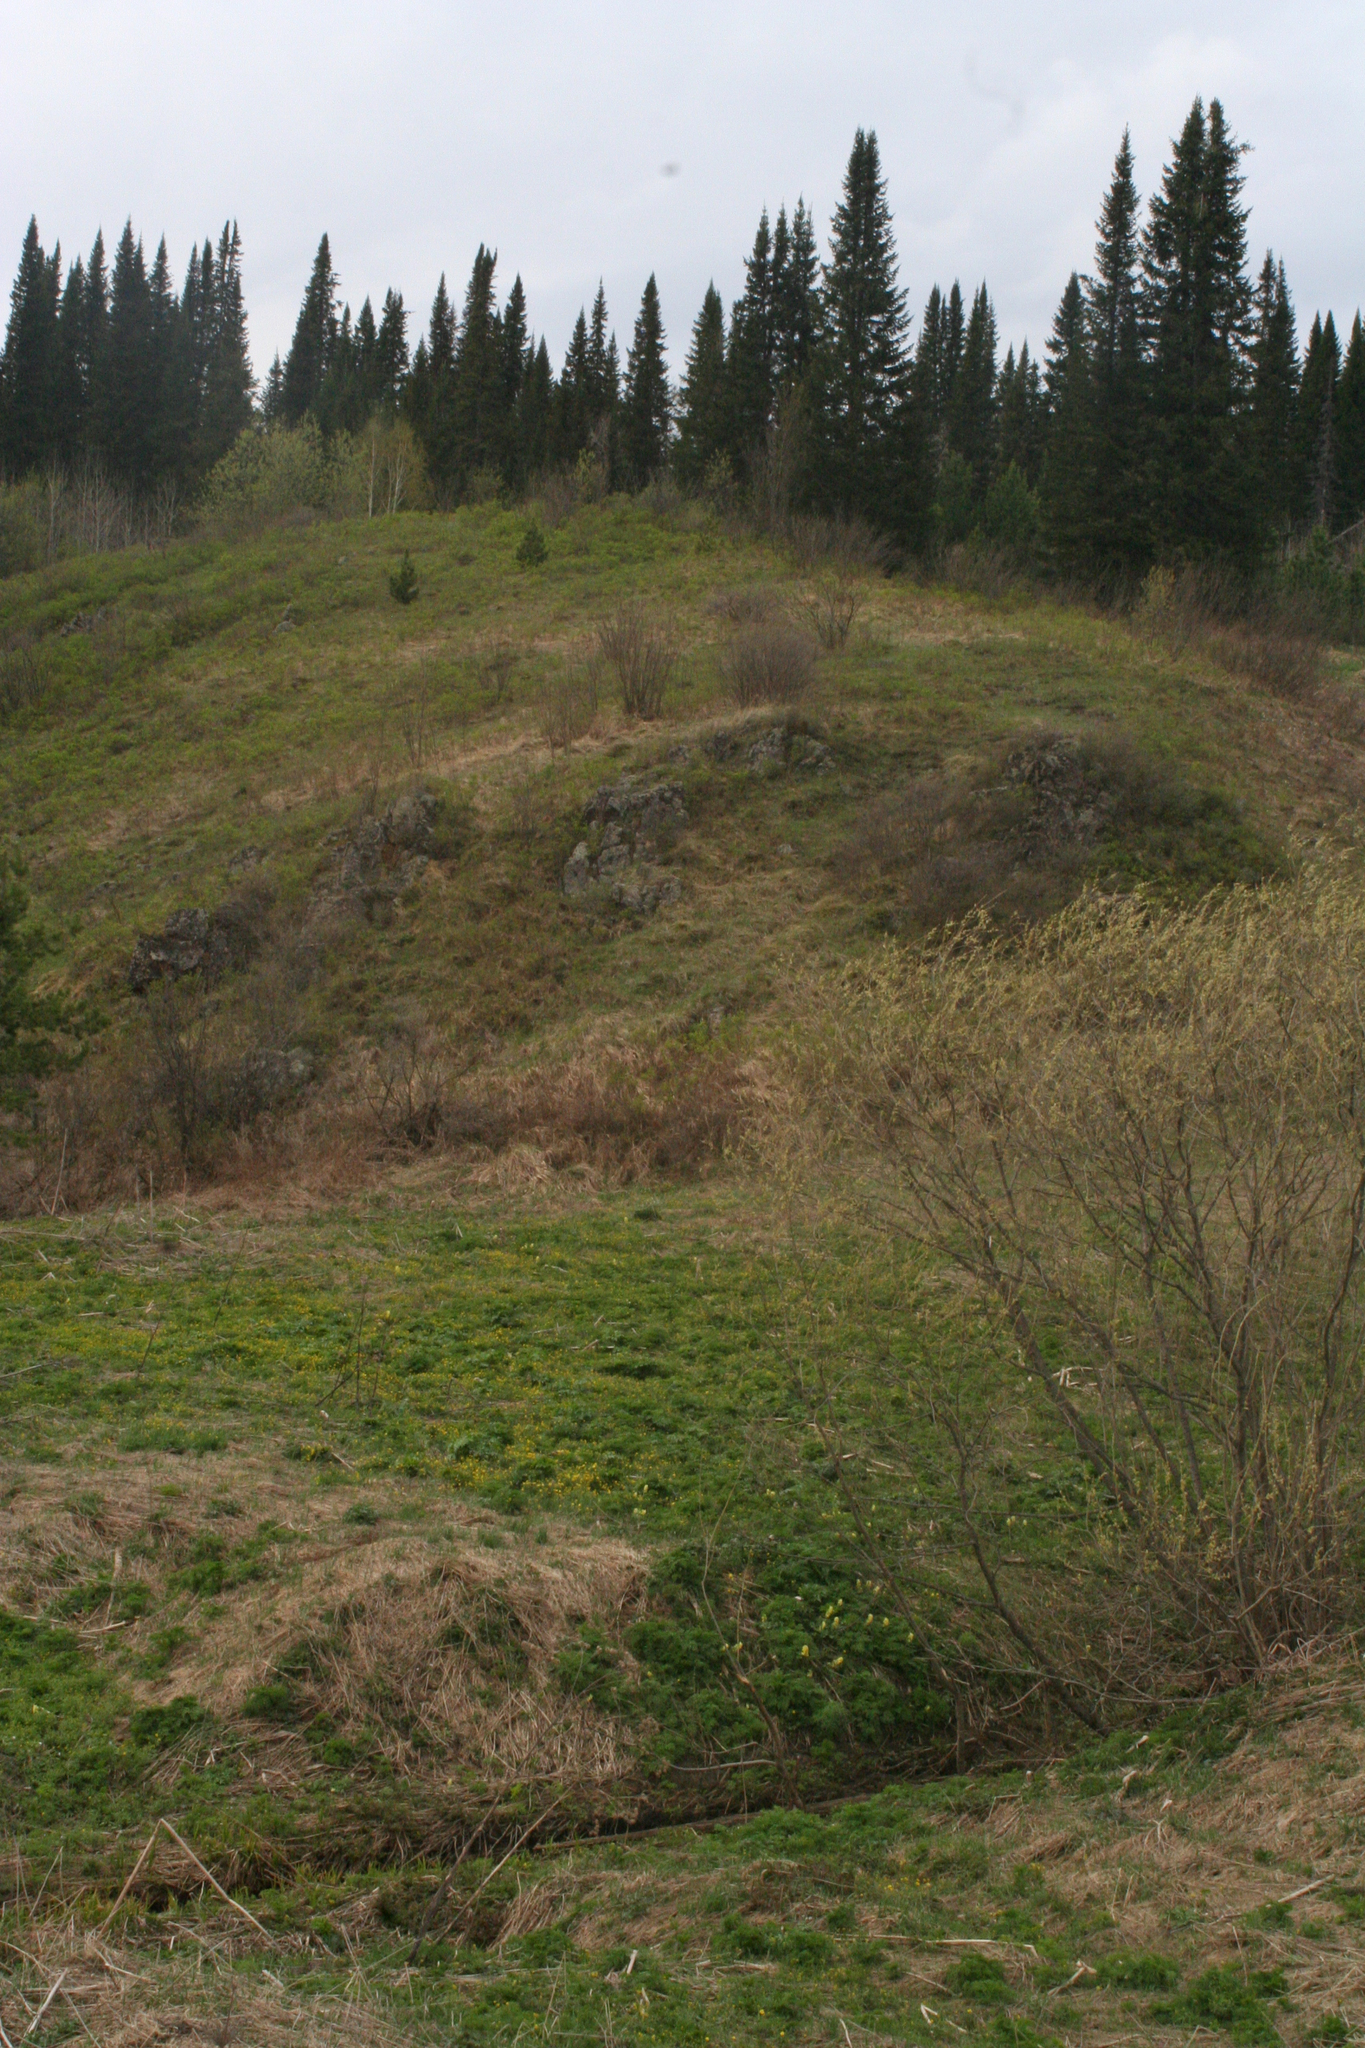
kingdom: Plantae
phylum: Tracheophyta
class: Pinopsida
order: Pinales
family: Pinaceae
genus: Abies
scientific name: Abies sibirica
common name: Siberian fir
